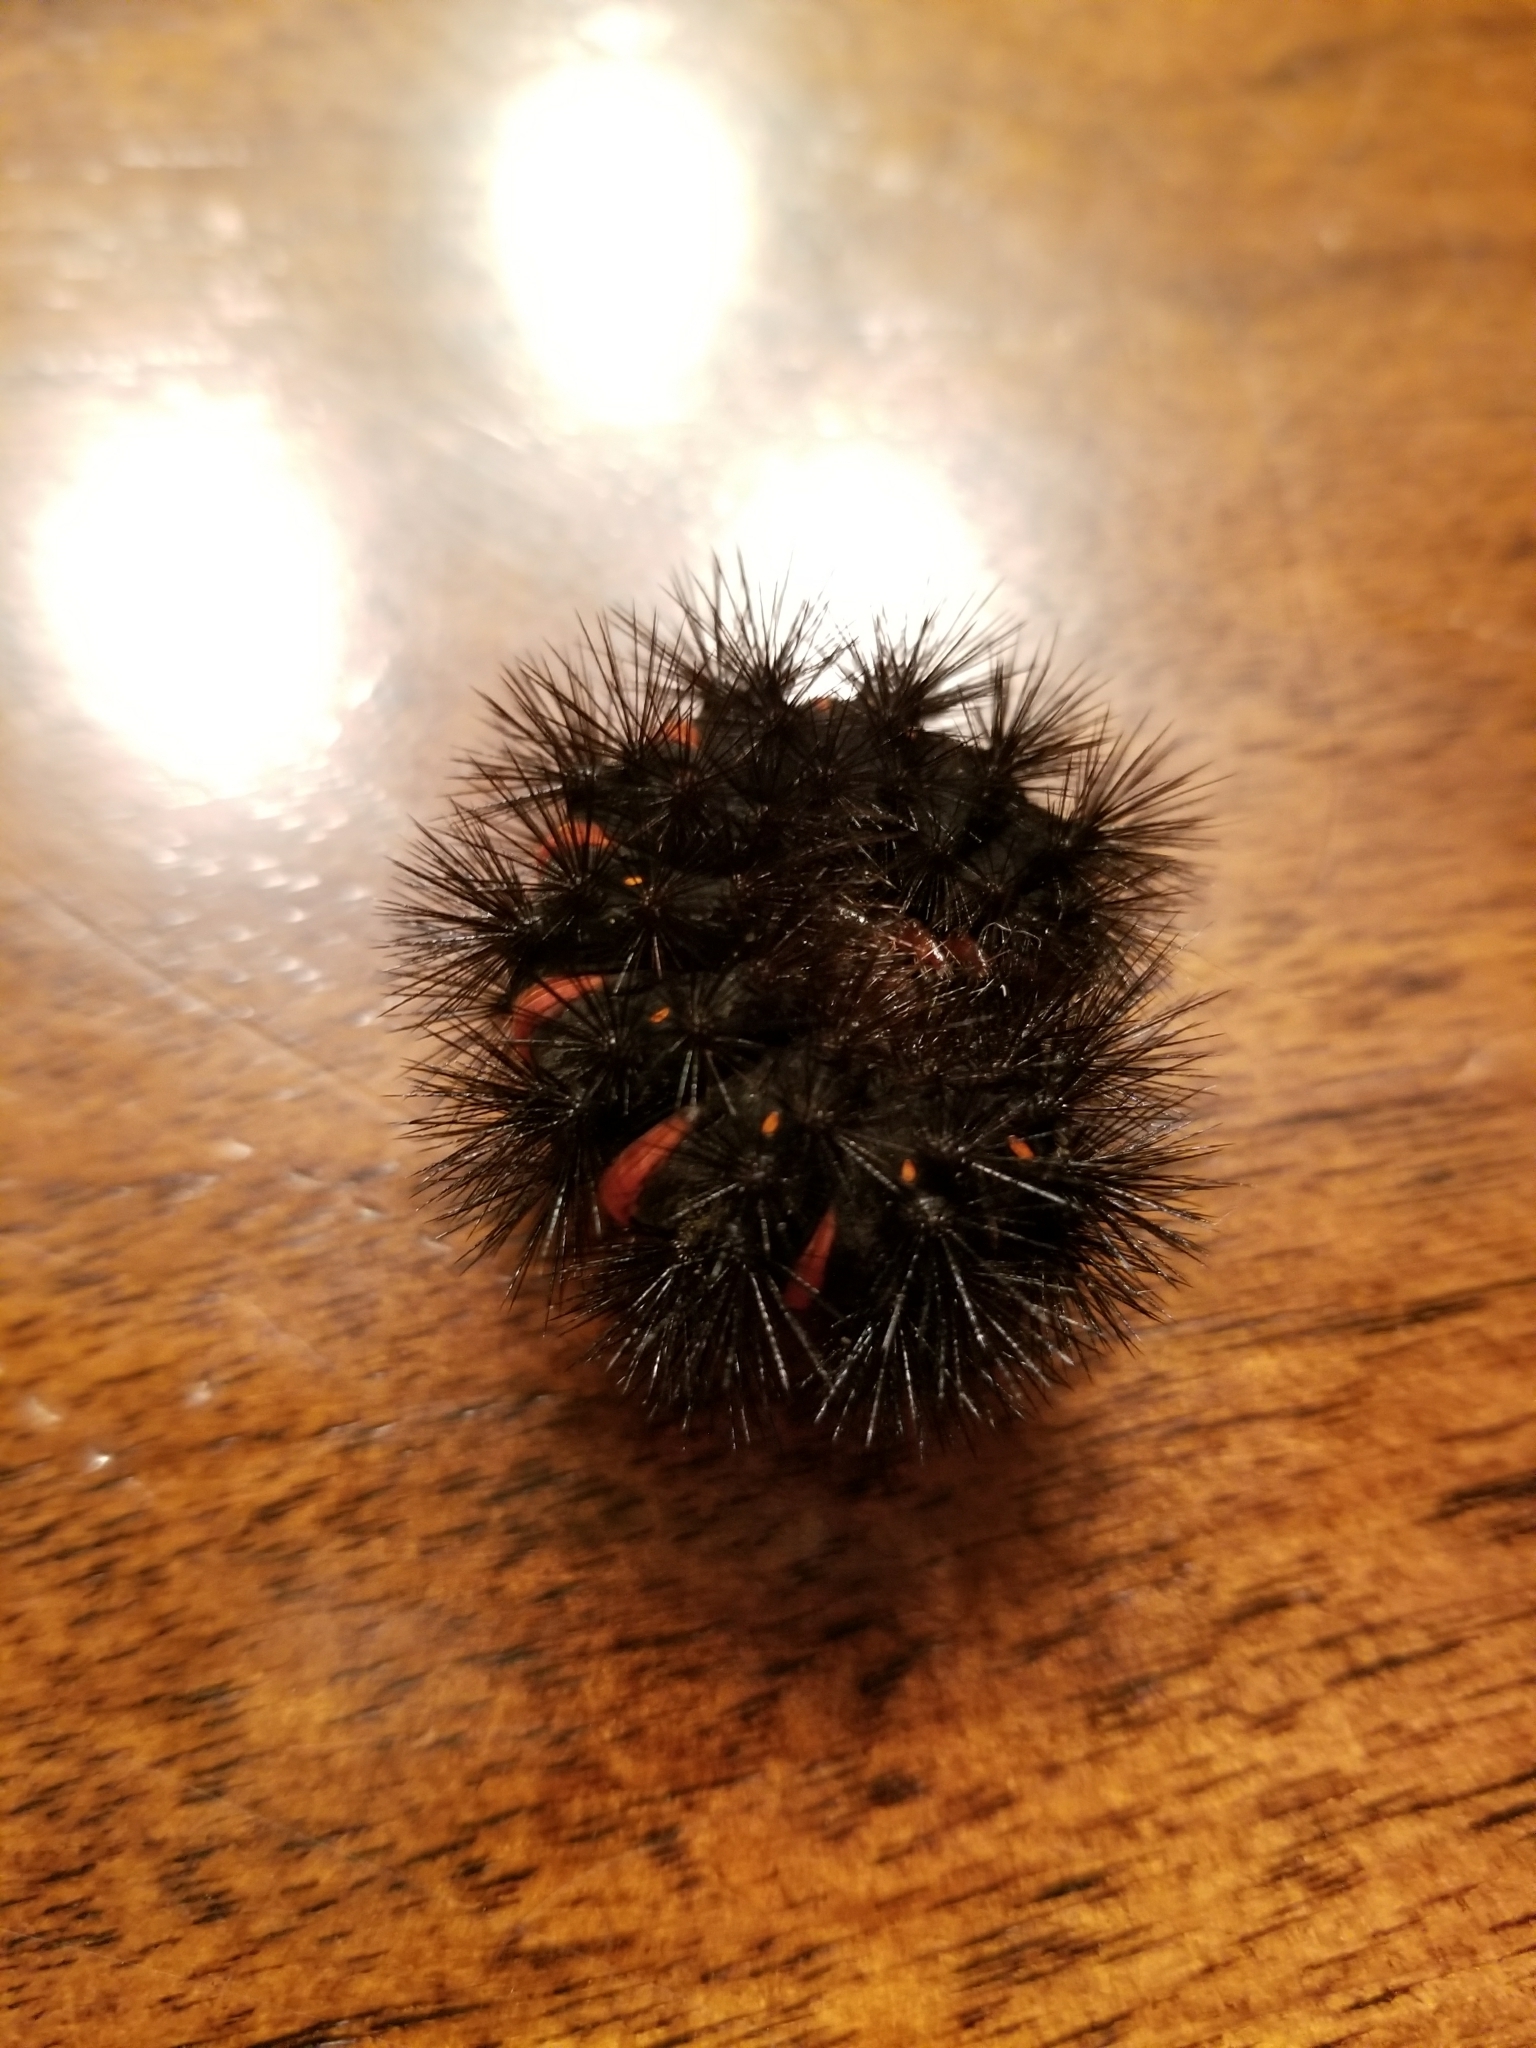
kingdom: Animalia
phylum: Arthropoda
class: Insecta
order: Lepidoptera
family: Erebidae
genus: Hypercompe
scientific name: Hypercompe scribonia
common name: Giant leopard moth
